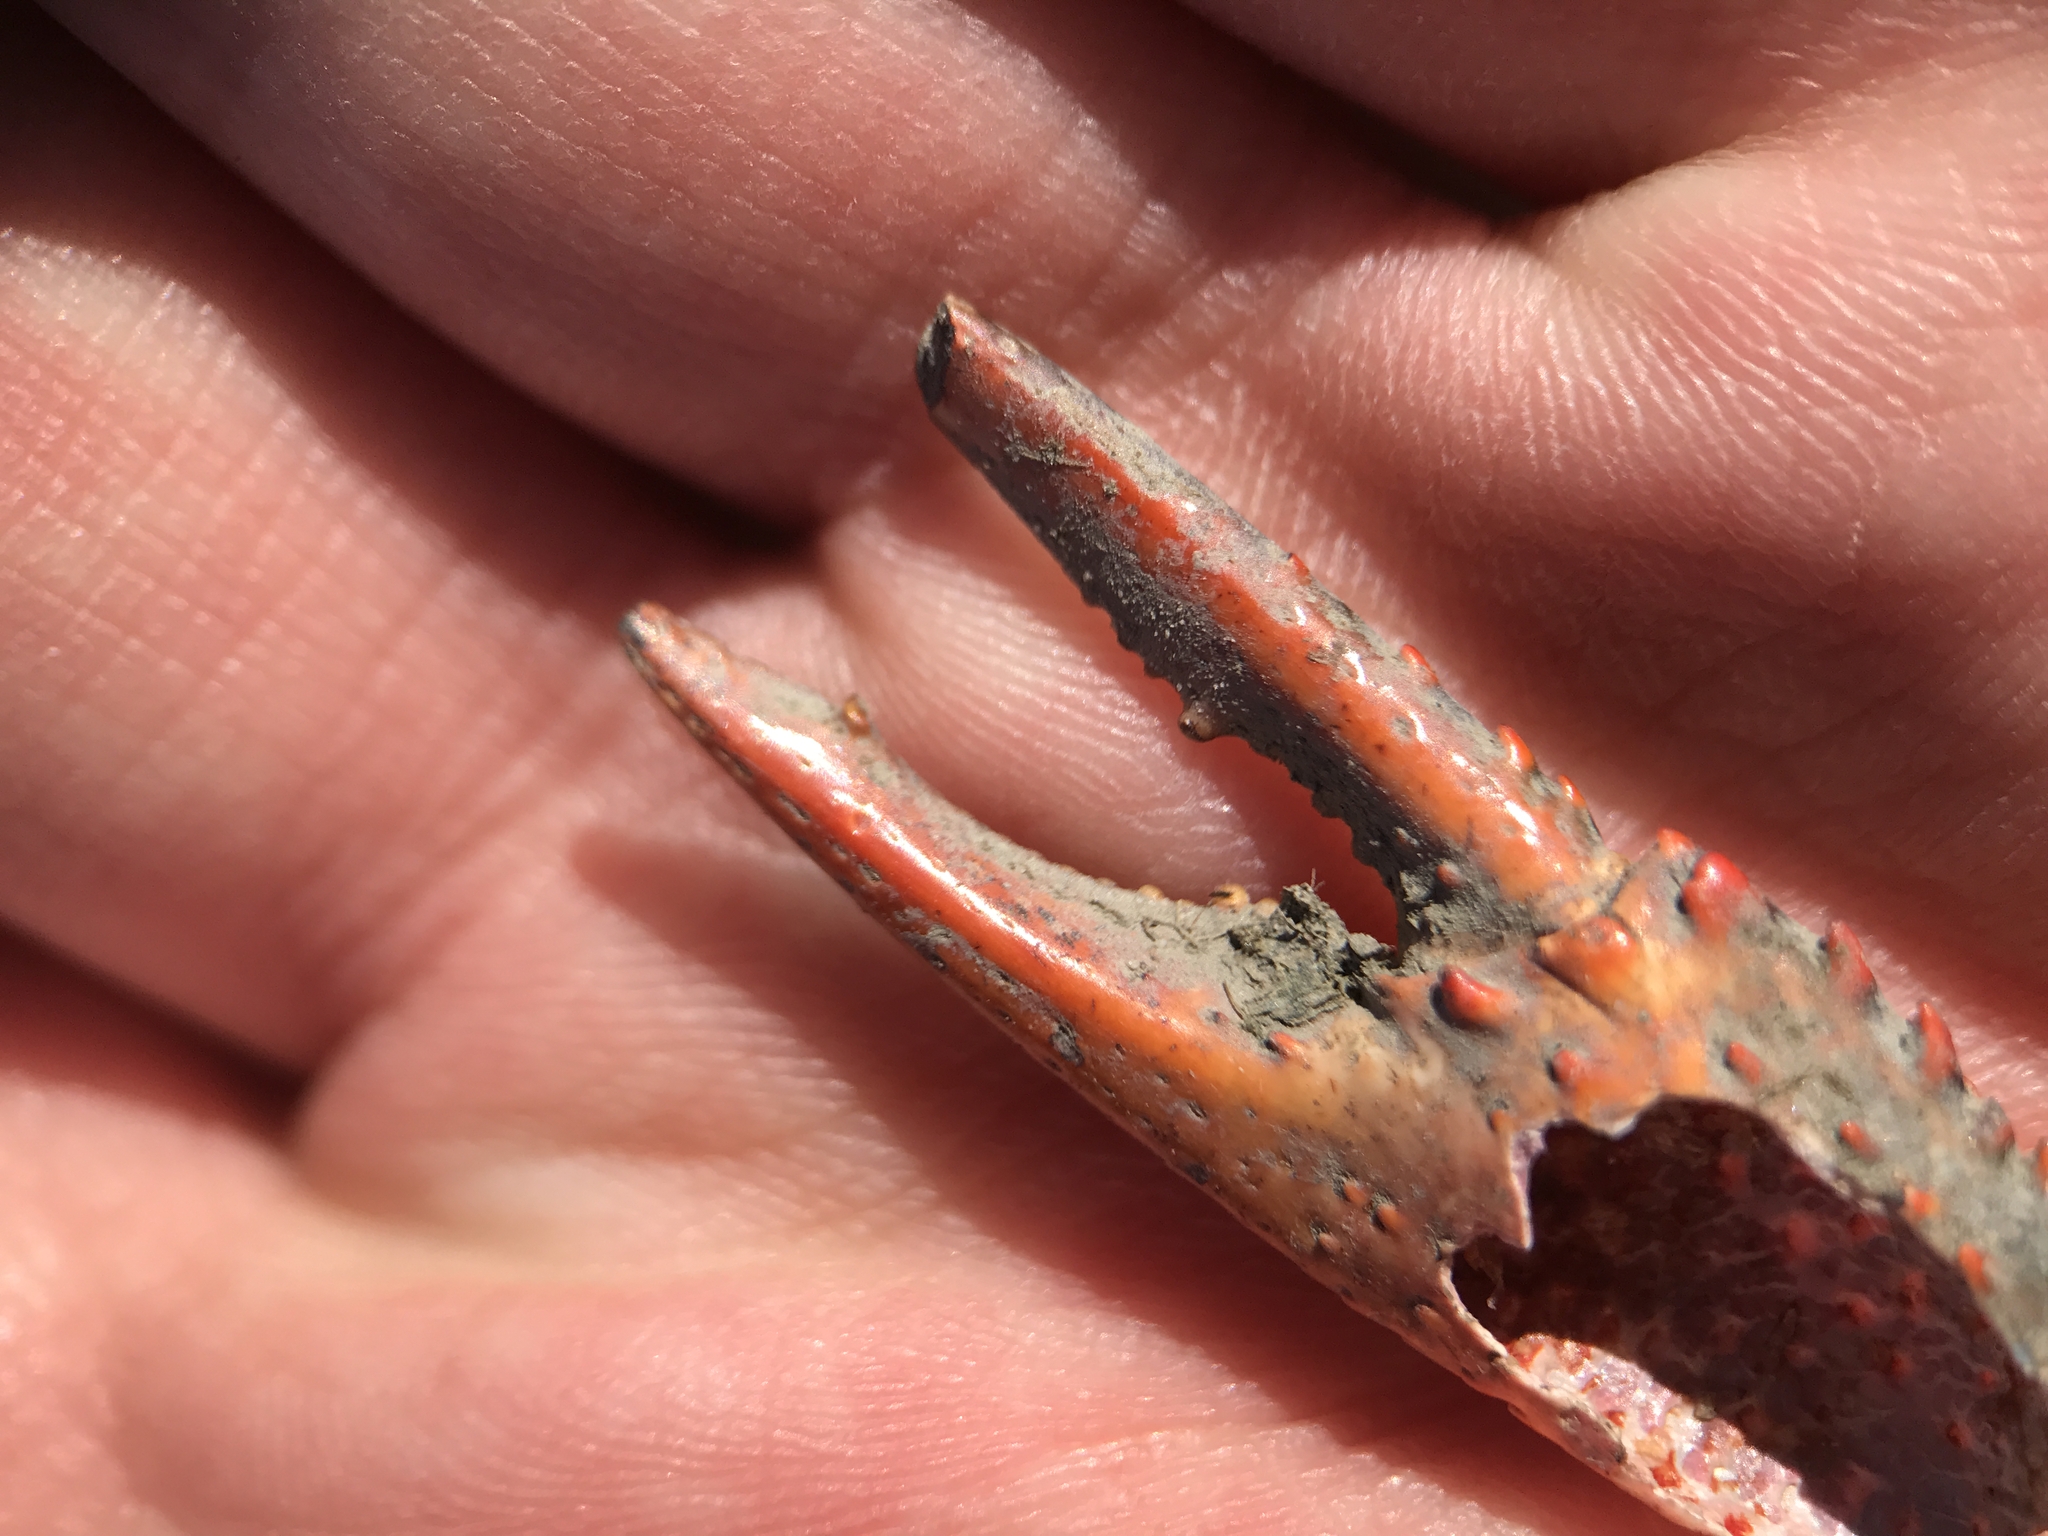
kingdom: Animalia
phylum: Arthropoda
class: Malacostraca
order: Decapoda
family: Cambaridae
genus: Procambarus
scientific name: Procambarus clarkii
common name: Red swamp crayfish
